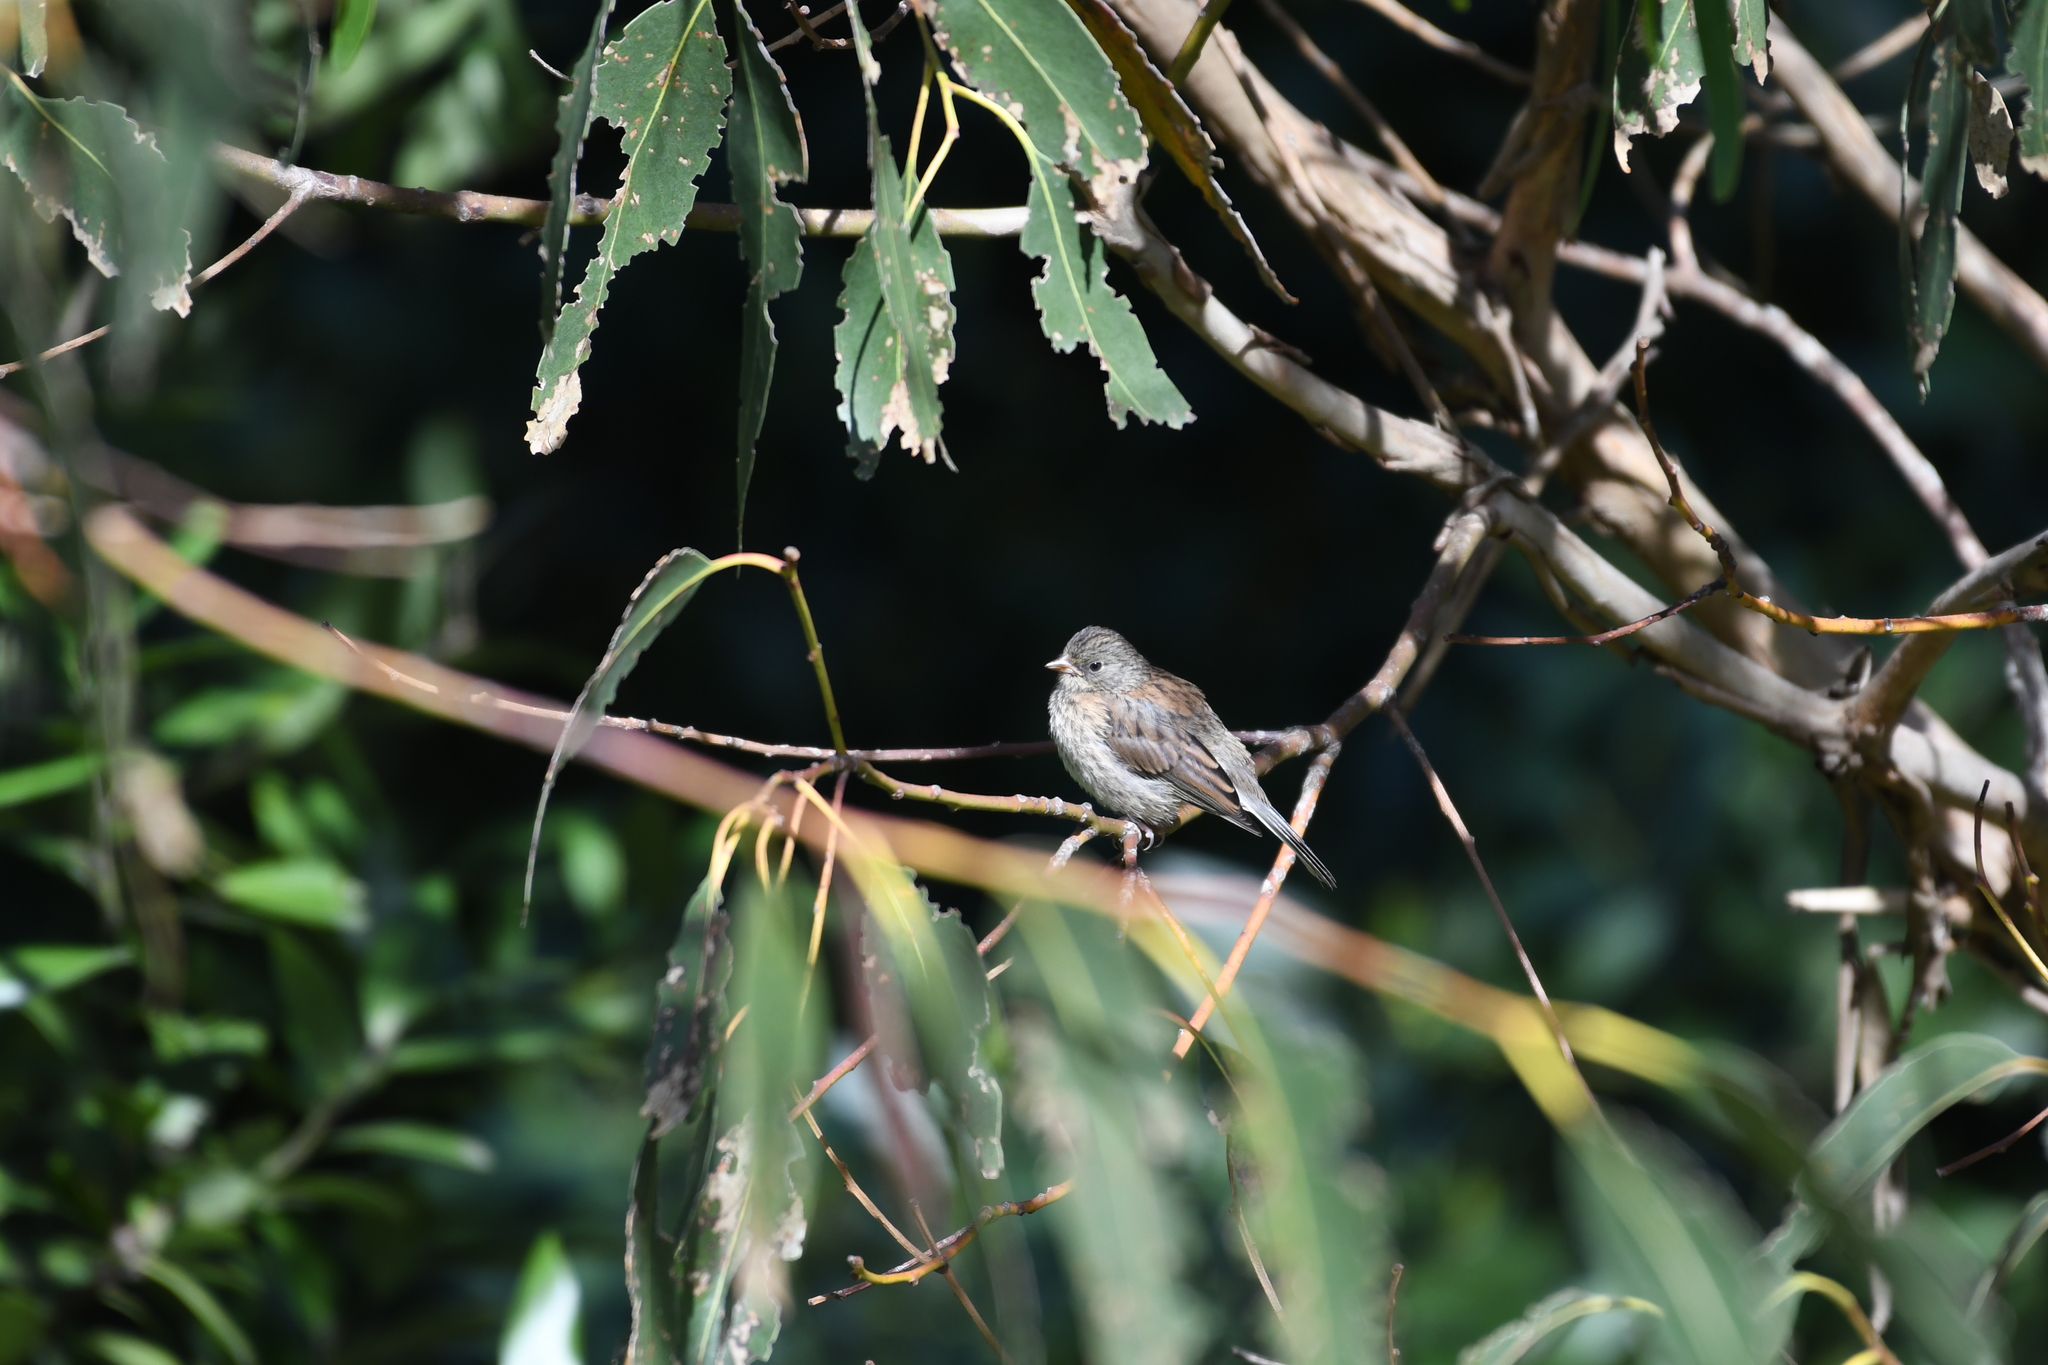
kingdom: Animalia
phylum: Chordata
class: Aves
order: Passeriformes
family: Passerellidae
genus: Junco
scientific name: Junco hyemalis
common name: Dark-eyed junco
